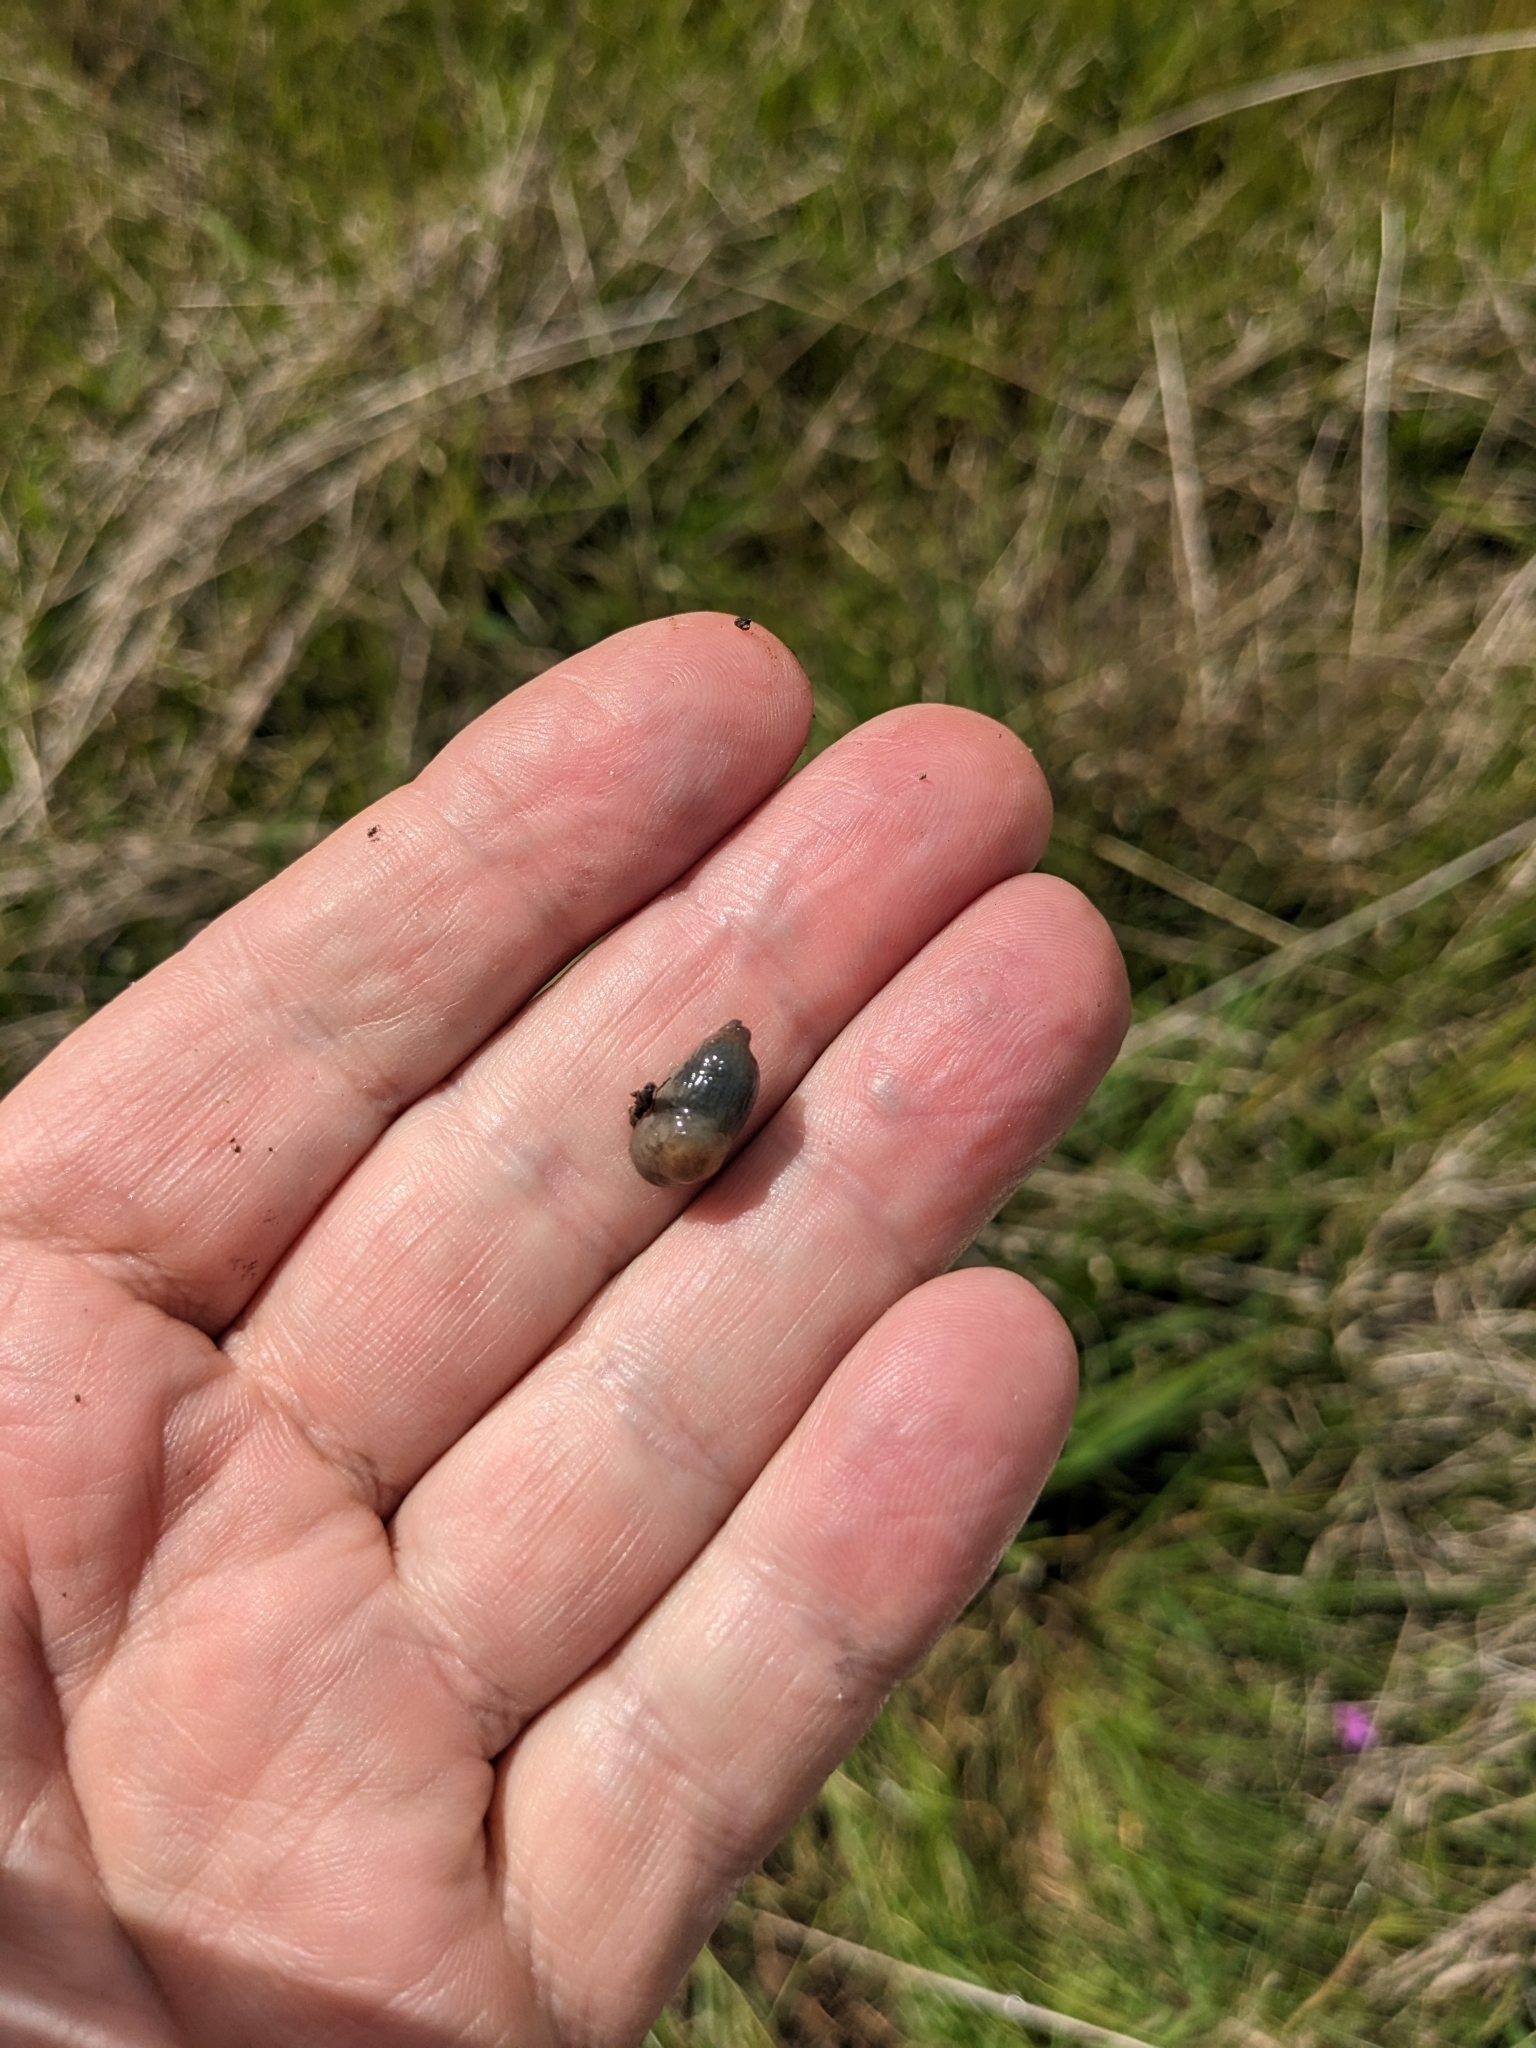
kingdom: Animalia
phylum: Mollusca
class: Gastropoda
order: Stylommatophora
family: Agriolimacidae
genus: Deroceras
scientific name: Deroceras invadens
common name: Caruana's slug
